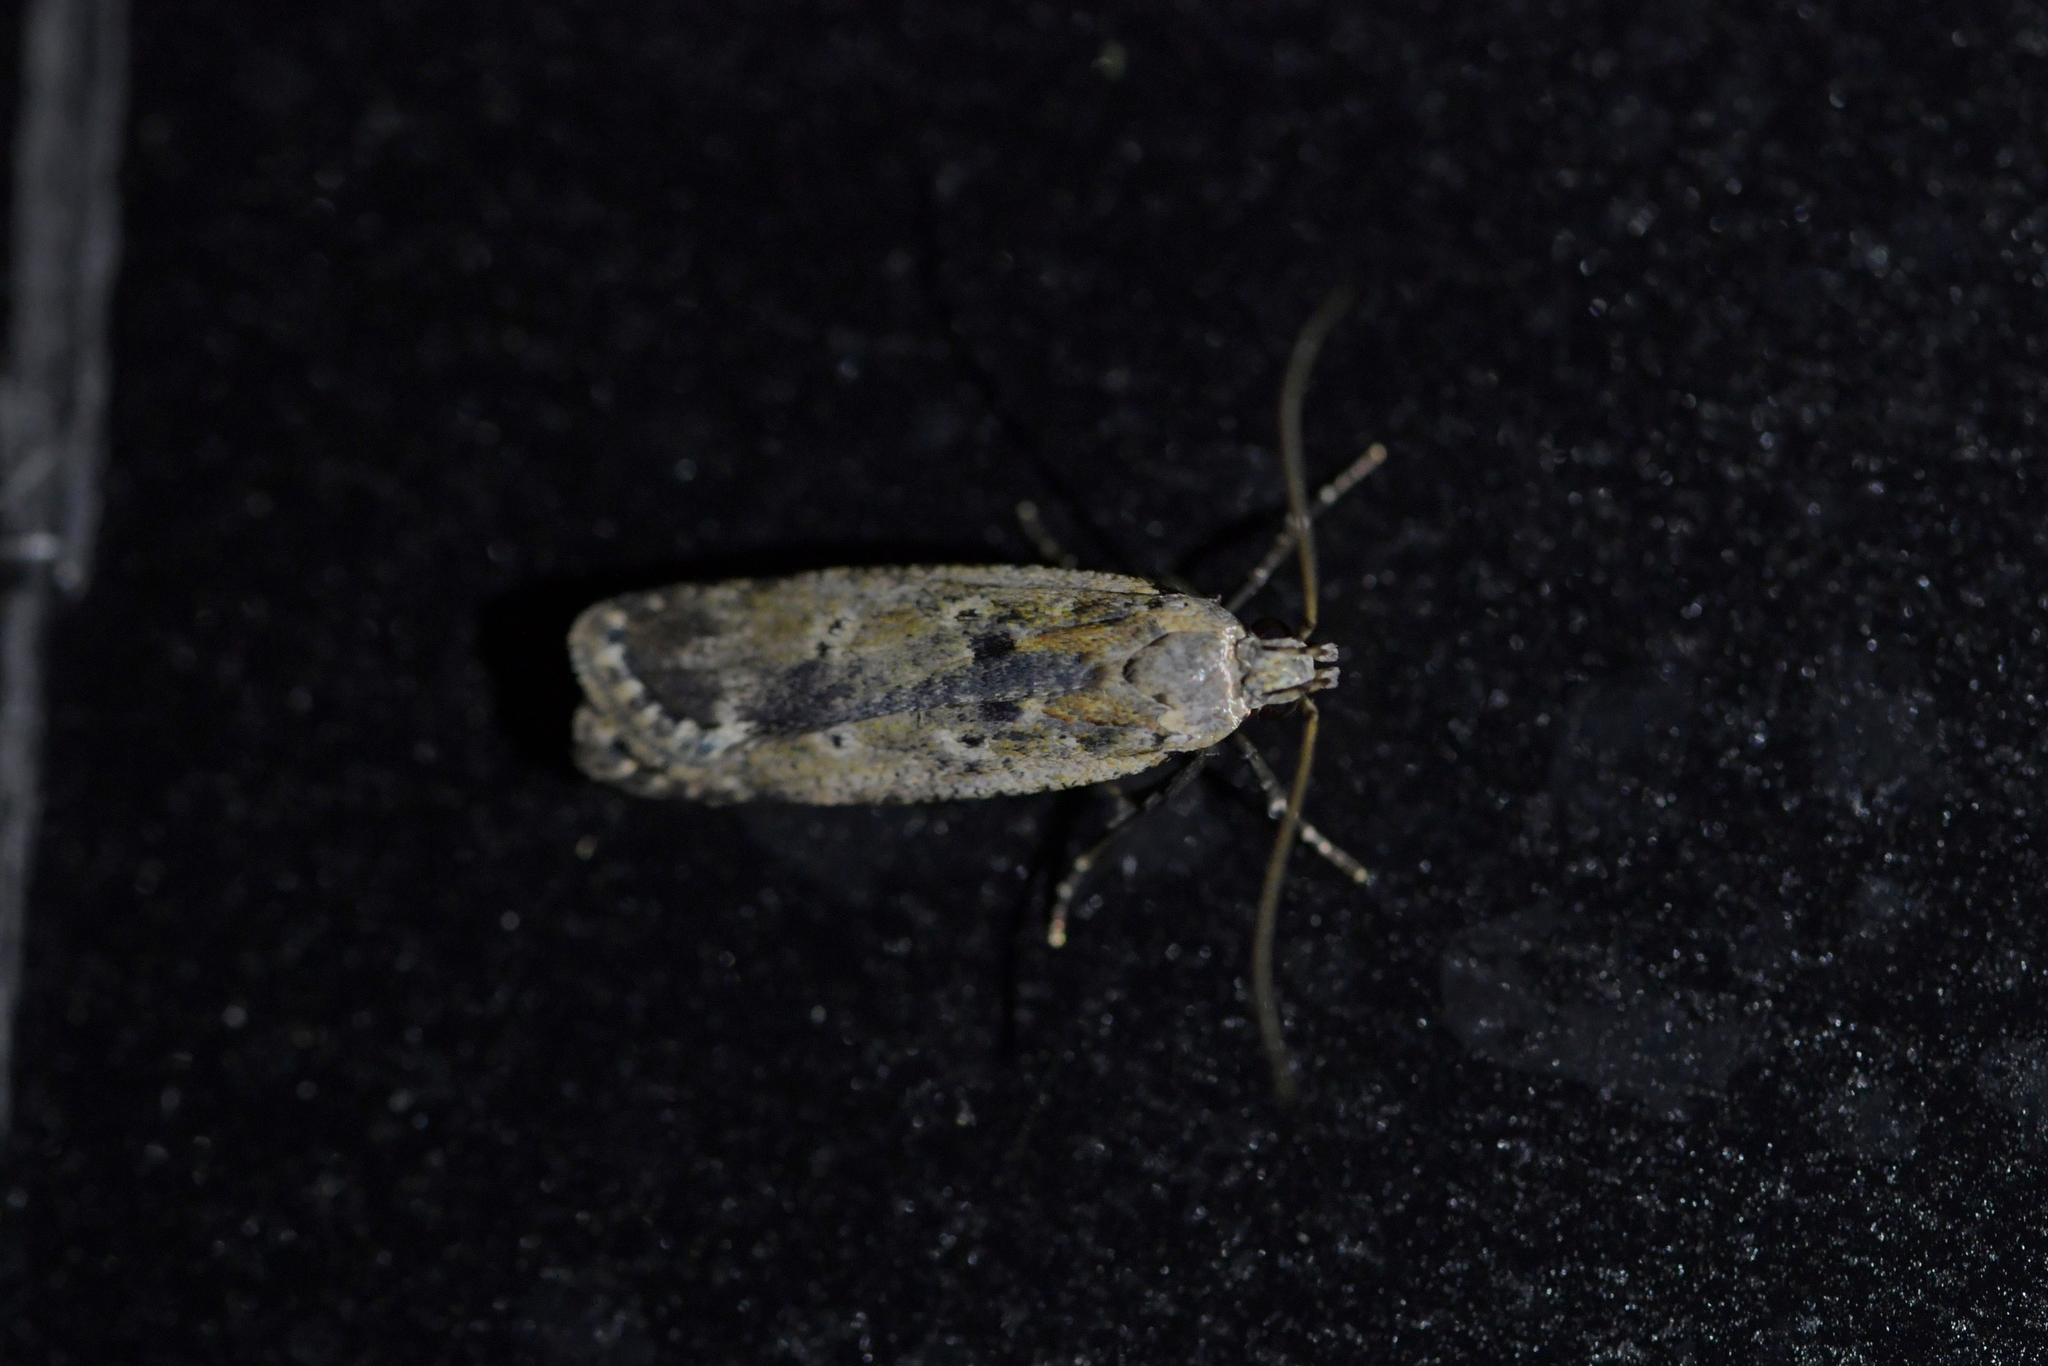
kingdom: Animalia
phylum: Arthropoda
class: Insecta
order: Lepidoptera
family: Gelechiidae
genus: Anisoplaca
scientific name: Anisoplaca achyrota
